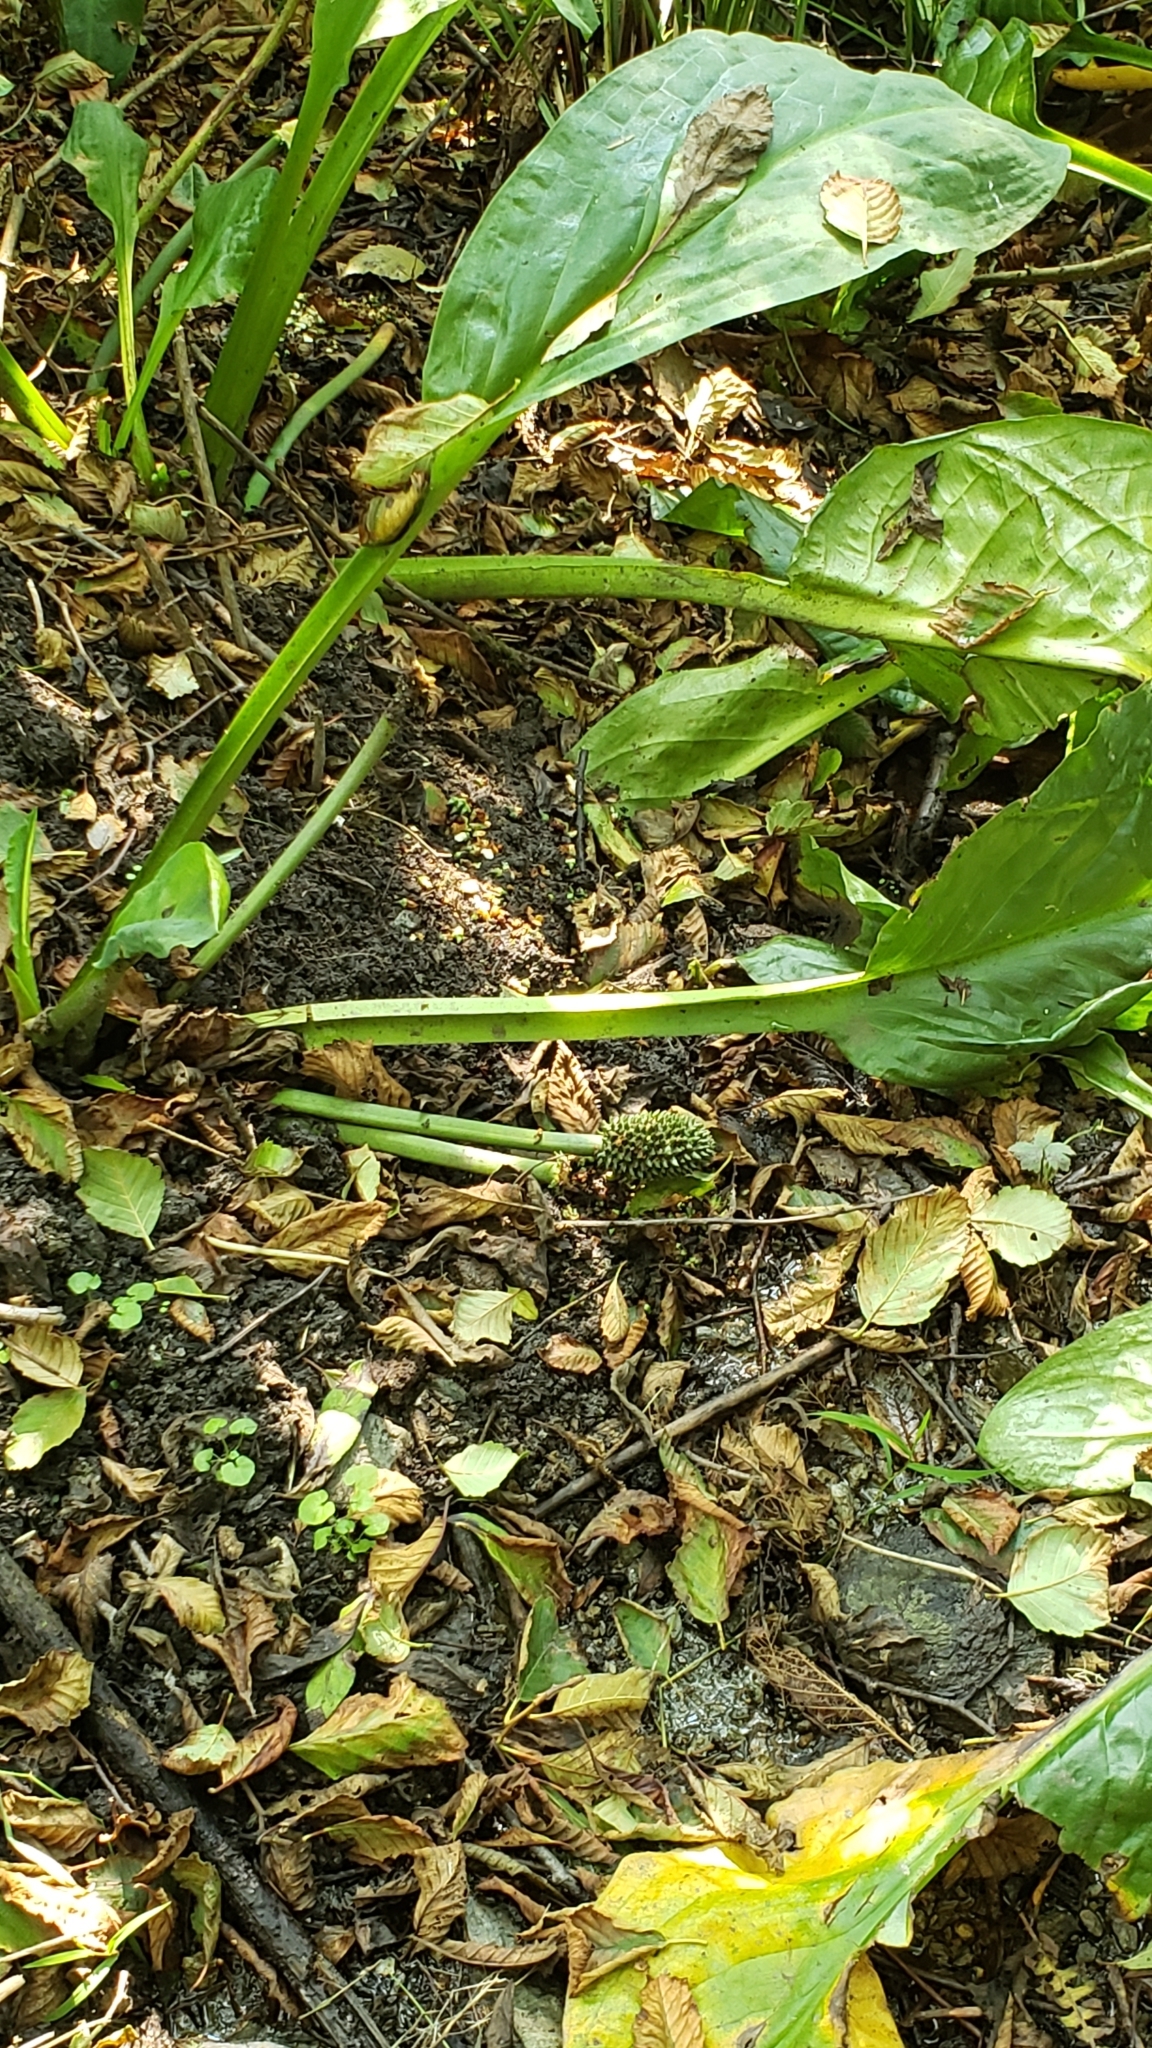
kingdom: Plantae
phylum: Tracheophyta
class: Liliopsida
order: Alismatales
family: Araceae
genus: Lysichiton
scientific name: Lysichiton americanus
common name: American skunk cabbage
